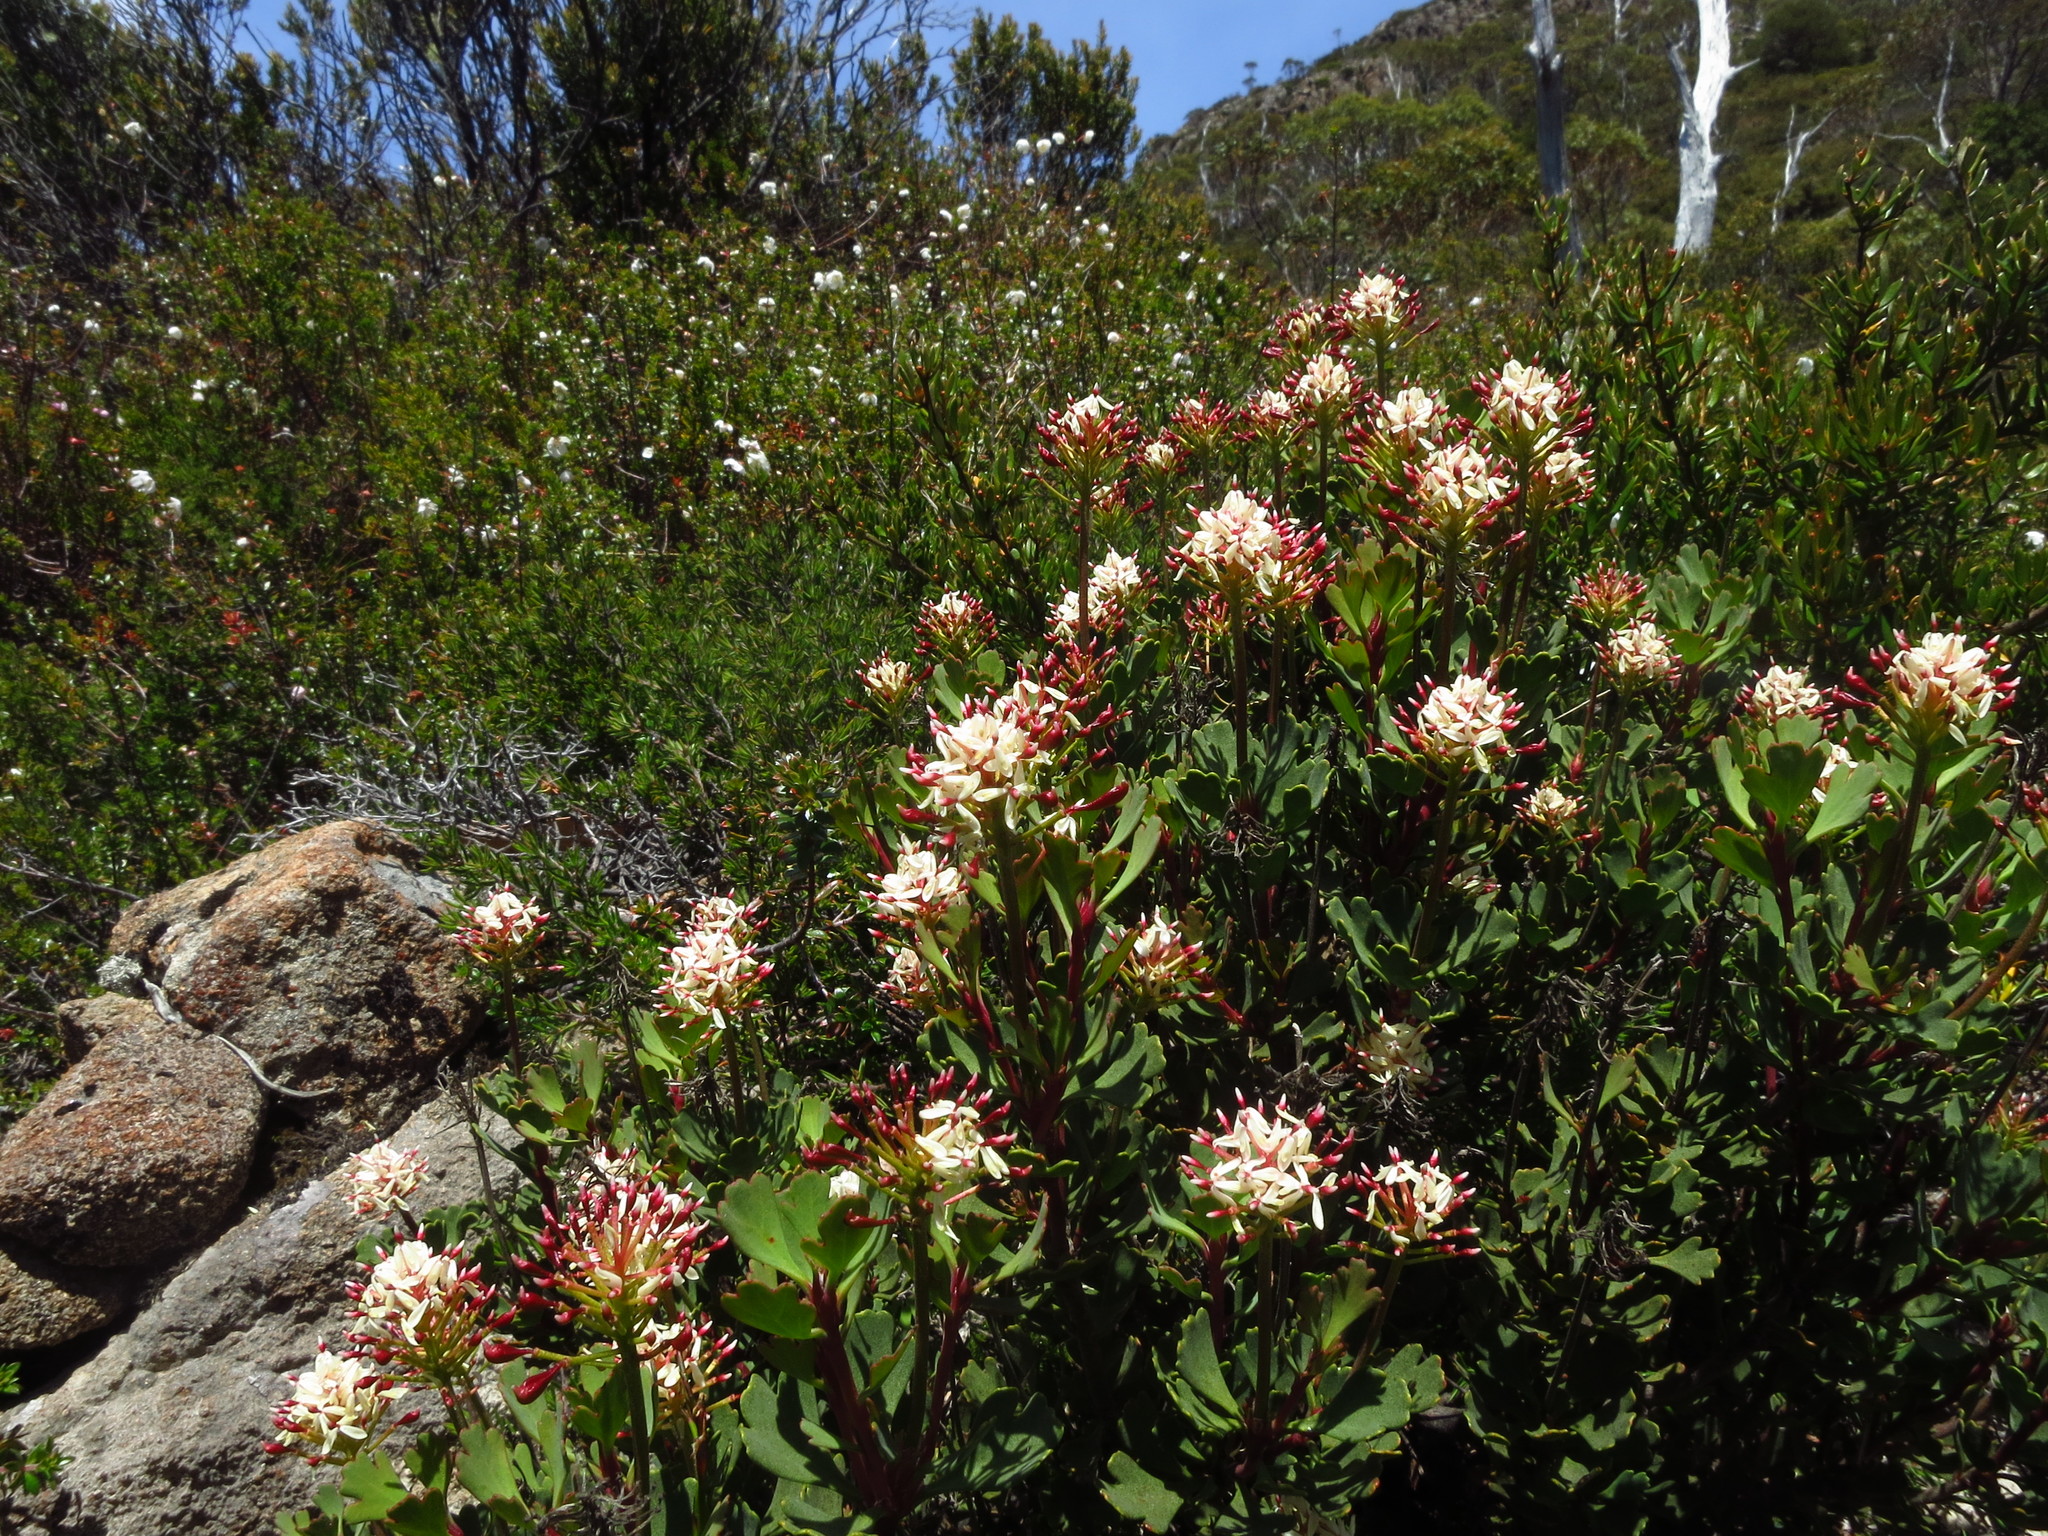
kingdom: Plantae
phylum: Tracheophyta
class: Magnoliopsida
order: Proteales
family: Proteaceae
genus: Bellendena
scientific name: Bellendena montana
